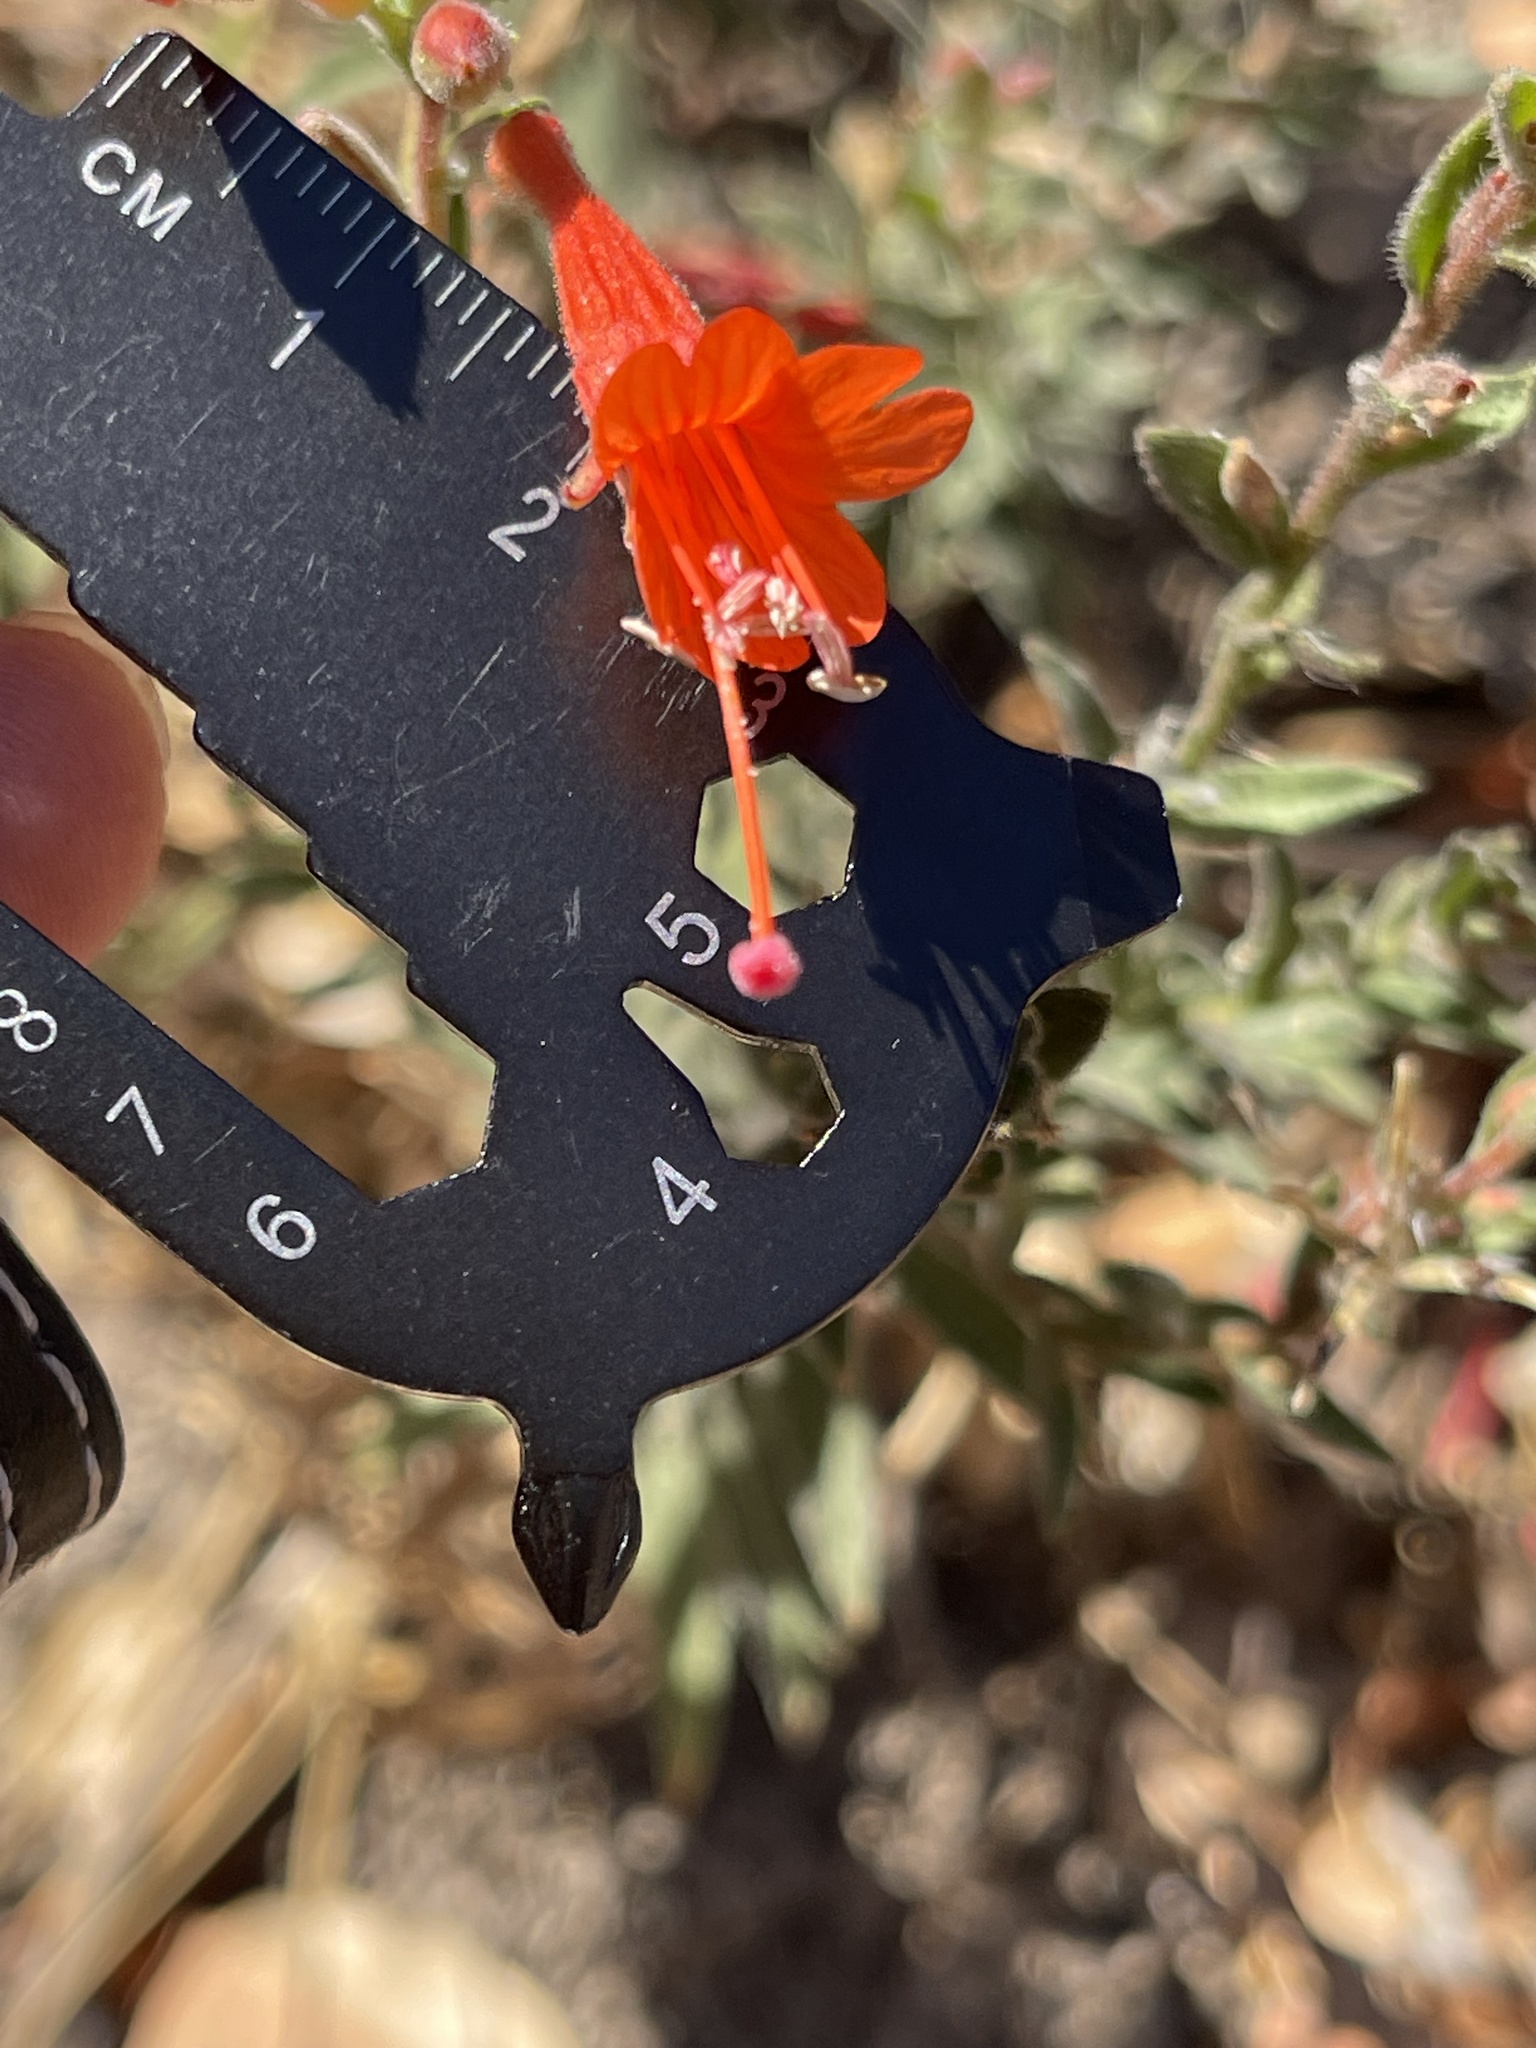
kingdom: Plantae
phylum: Tracheophyta
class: Magnoliopsida
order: Myrtales
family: Onagraceae
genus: Epilobium
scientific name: Epilobium canum
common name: California-fuchsia
